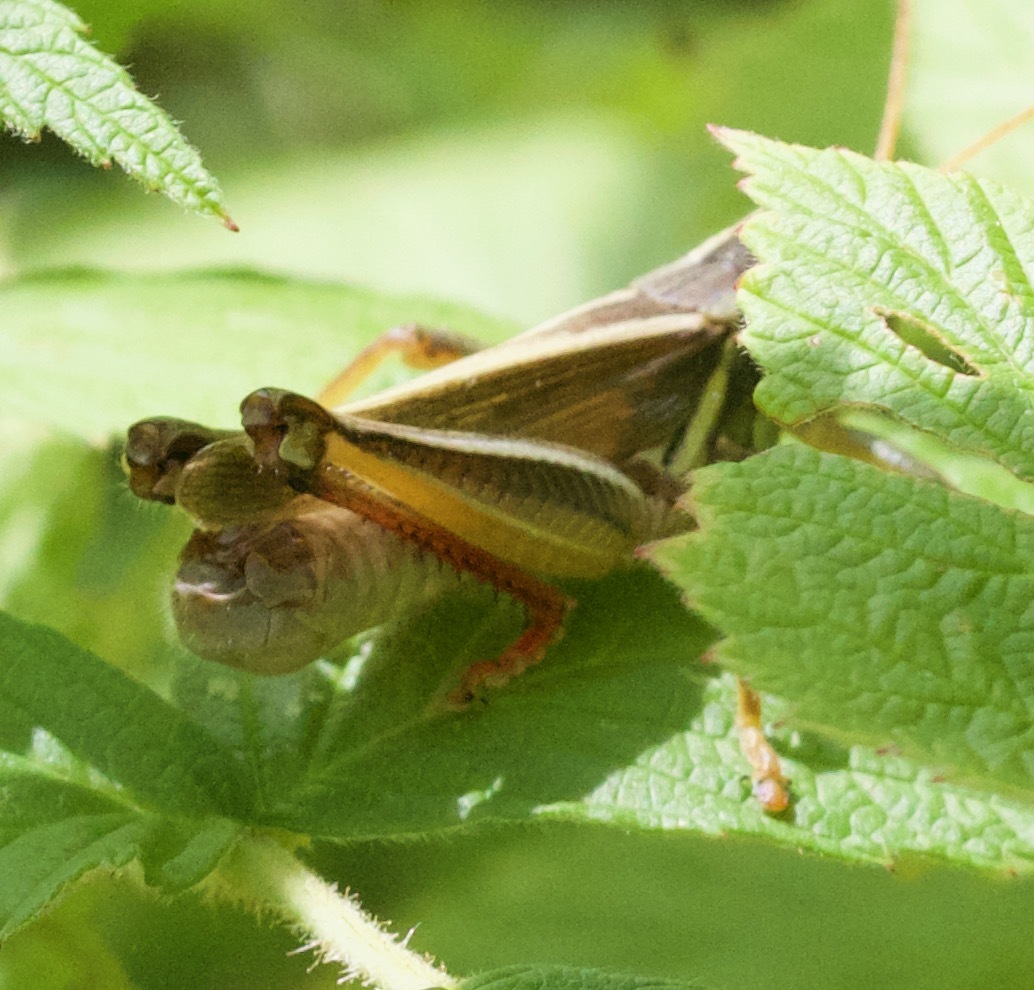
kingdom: Animalia
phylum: Arthropoda
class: Insecta
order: Orthoptera
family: Acrididae
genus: Melanoplus
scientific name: Melanoplus bivittatus
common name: Two-striped grasshopper
